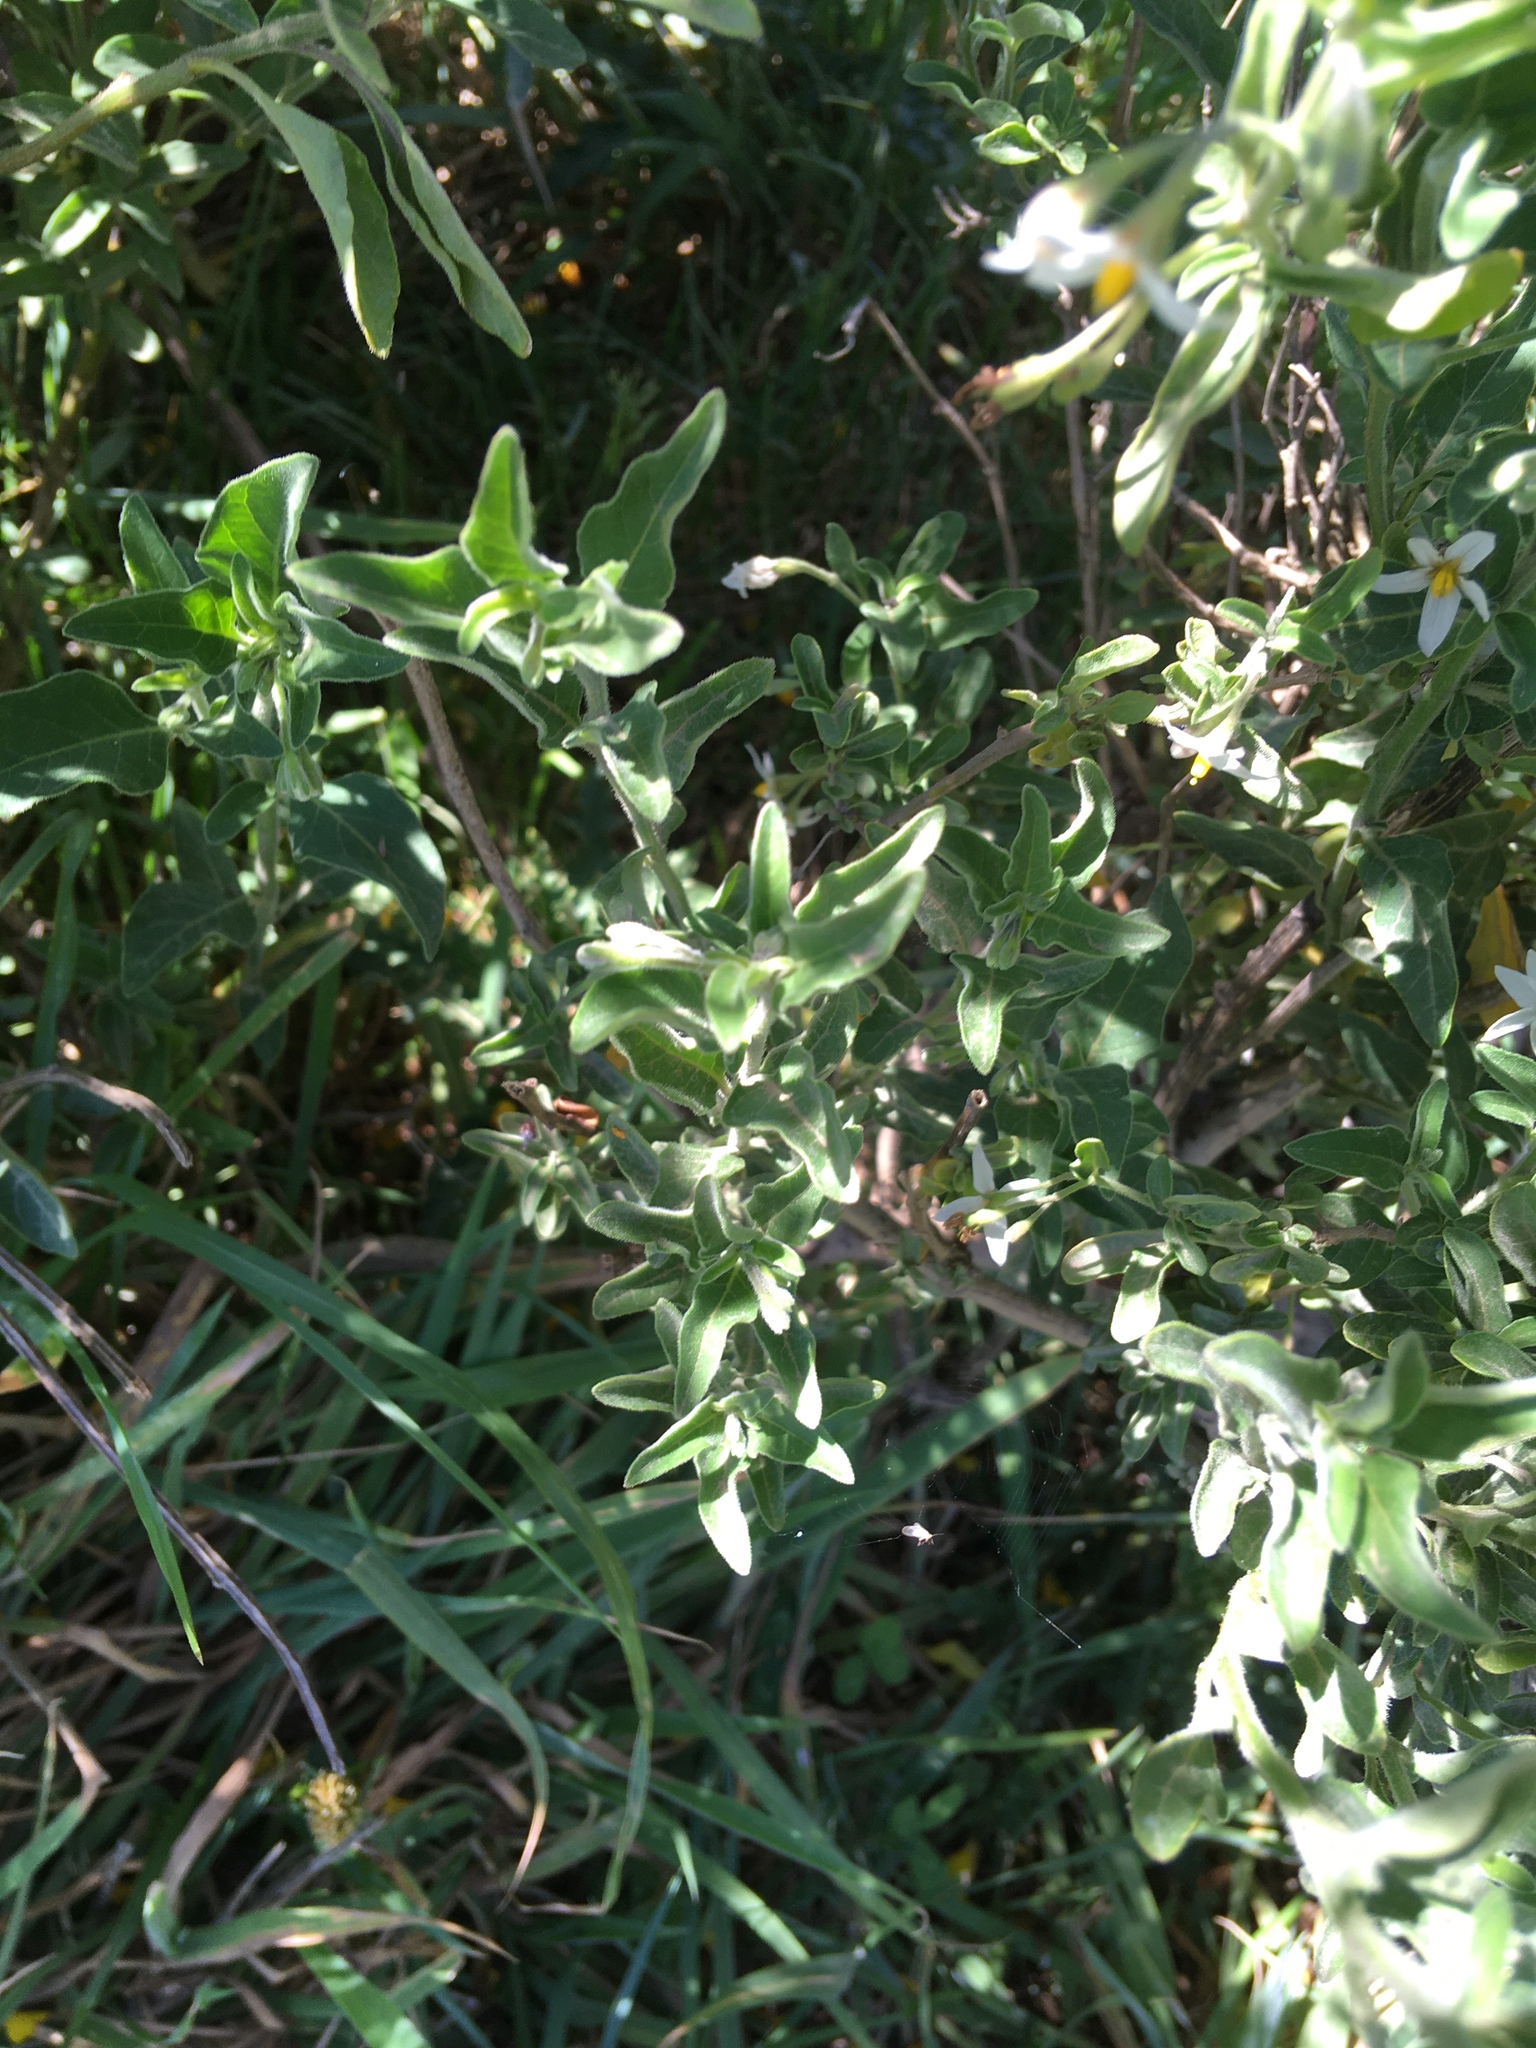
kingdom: Plantae
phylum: Tracheophyta
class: Magnoliopsida
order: Solanales
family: Solanaceae
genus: Solanum
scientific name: Solanum chenopodioides
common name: Tall nightshade
